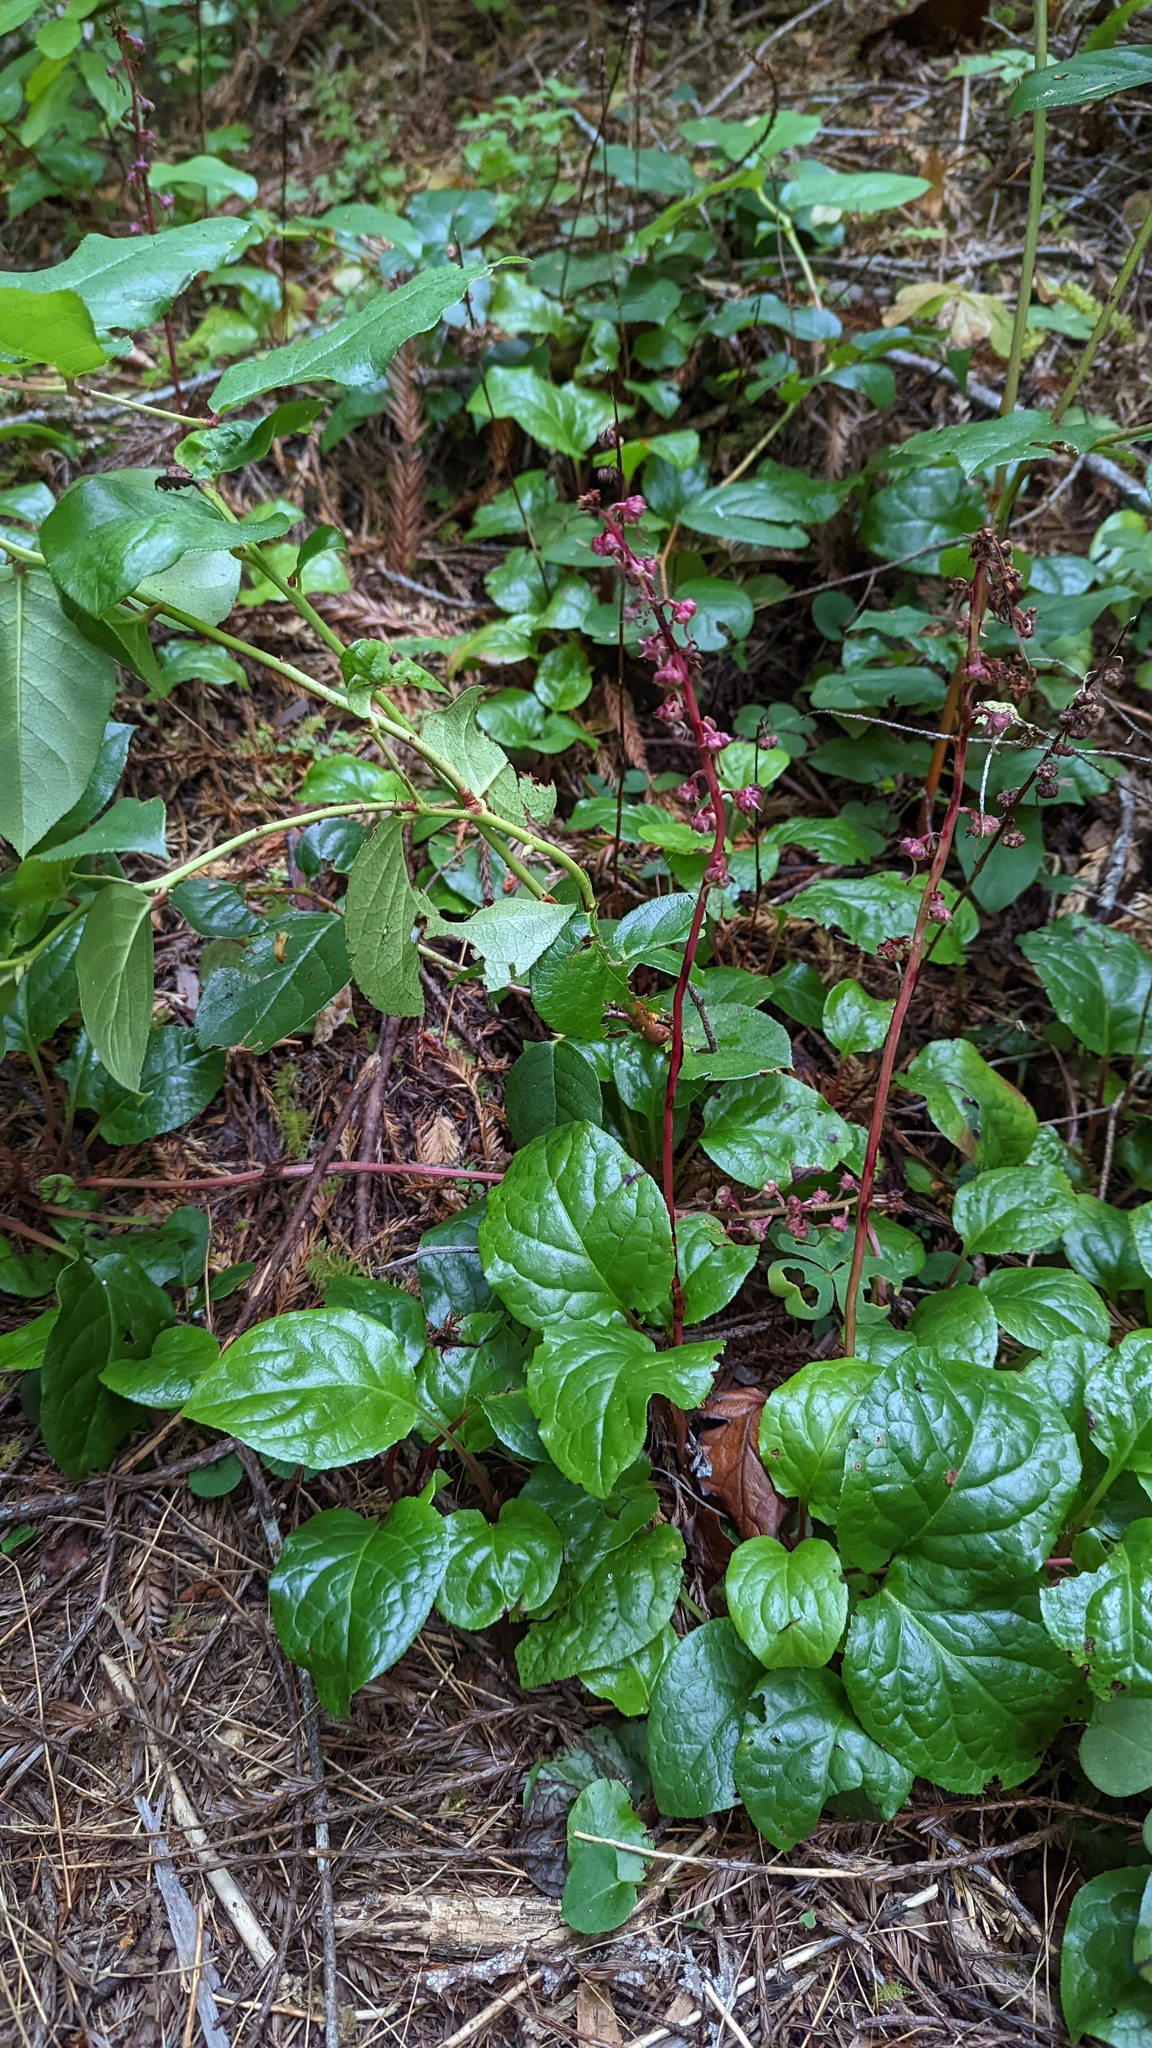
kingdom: Plantae
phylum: Tracheophyta
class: Magnoliopsida
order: Ericales
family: Ericaceae
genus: Pyrola
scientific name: Pyrola asarifolia
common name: Bog wintergreen
